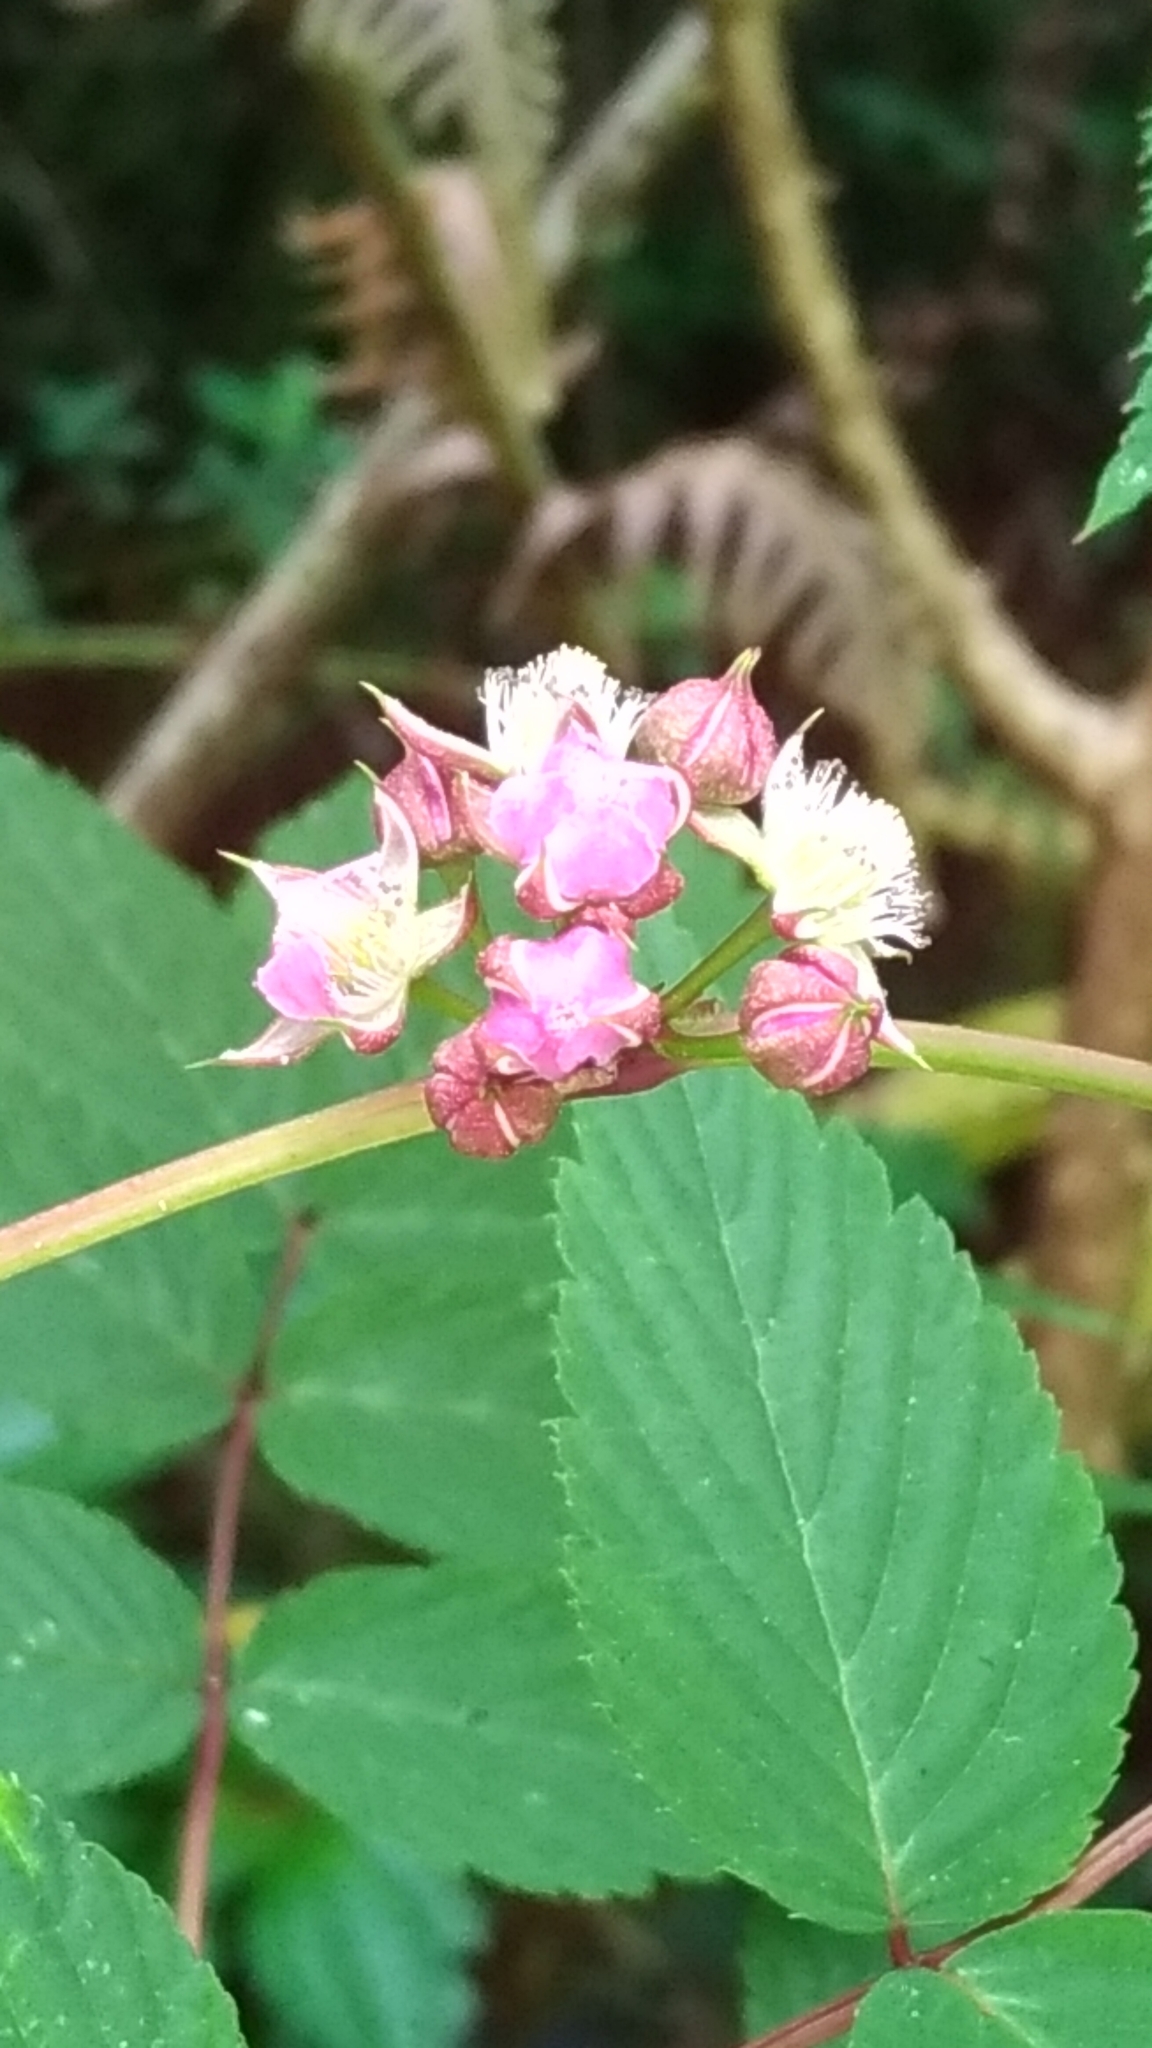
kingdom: Plantae
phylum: Tracheophyta
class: Magnoliopsida
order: Rosales
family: Rosaceae
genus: Rubus
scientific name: Rubus inopertus
